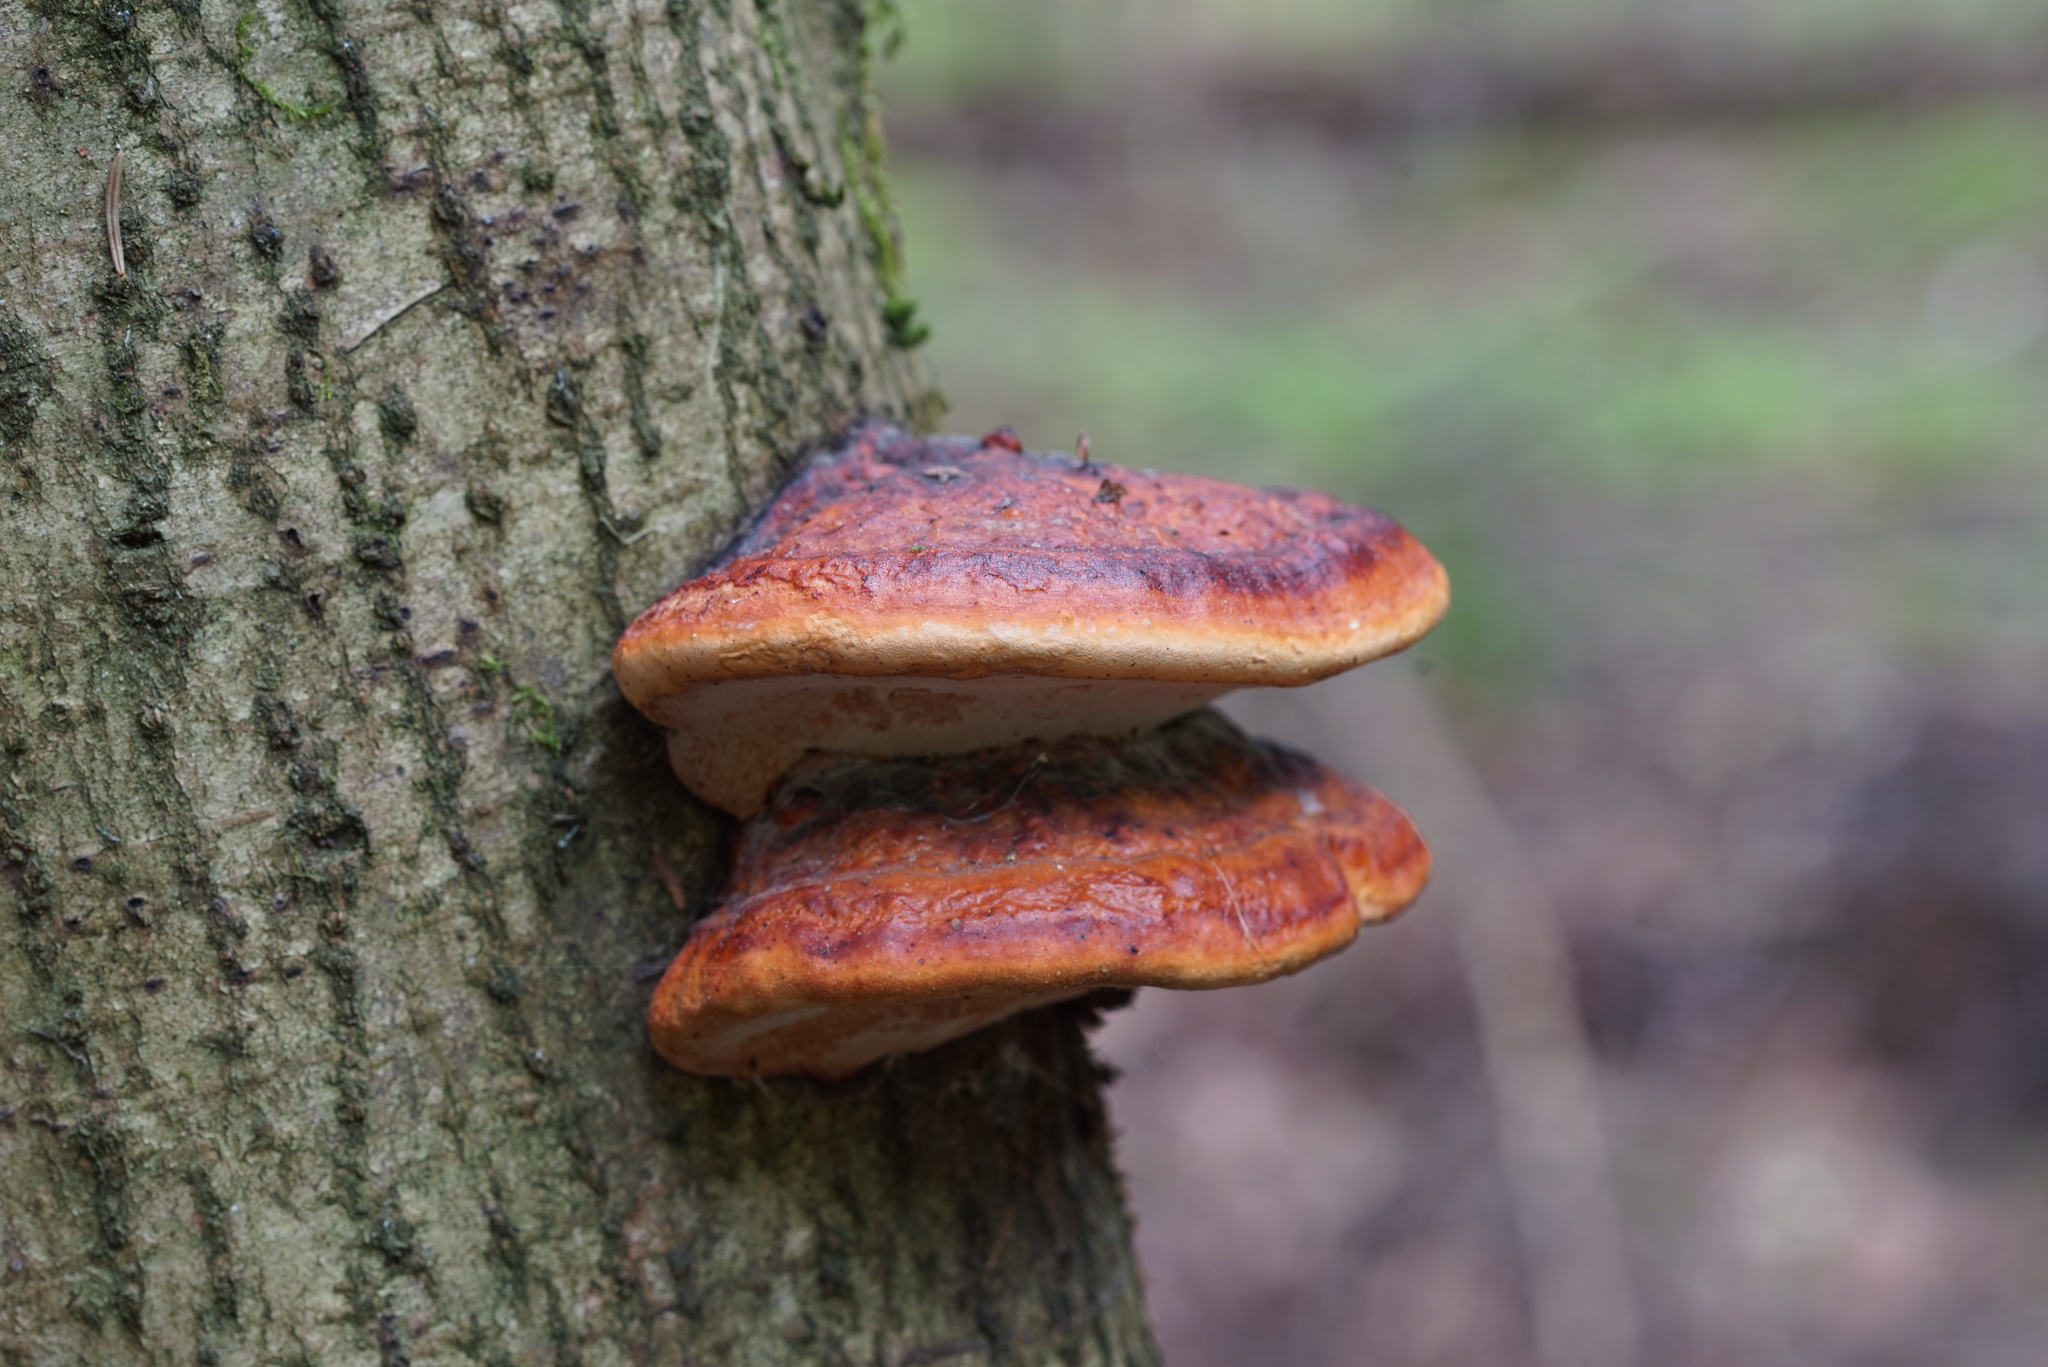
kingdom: Fungi
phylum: Basidiomycota
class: Agaricomycetes
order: Polyporales
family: Fomitopsidaceae
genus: Fomitopsis
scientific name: Fomitopsis pinicola
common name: Red-belted bracket
